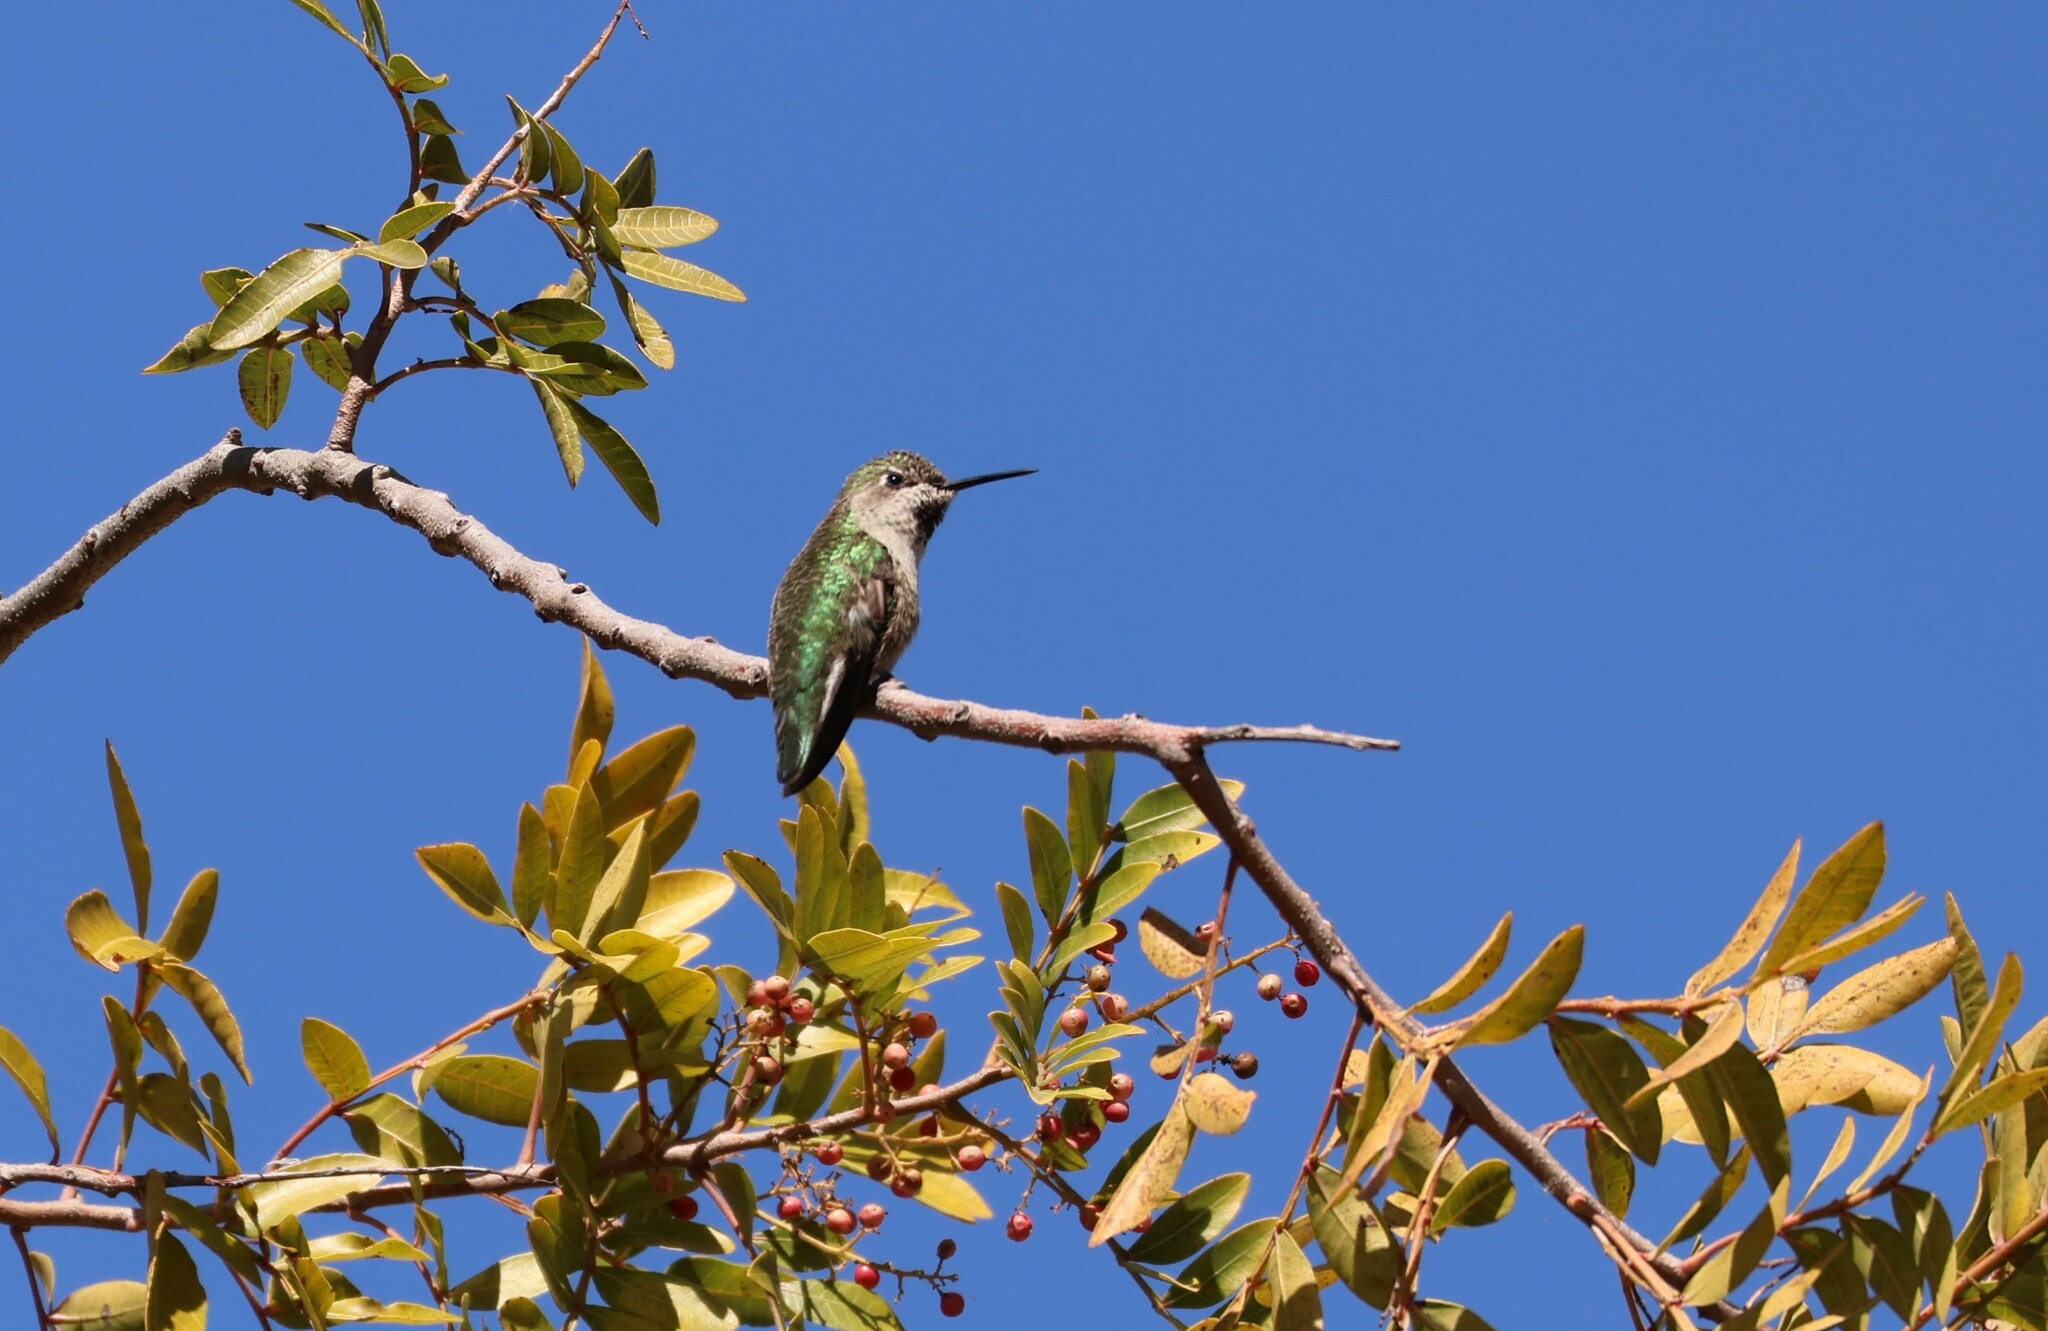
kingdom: Animalia
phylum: Chordata
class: Aves
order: Apodiformes
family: Trochilidae
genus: Calypte
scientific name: Calypte anna
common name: Anna's hummingbird
